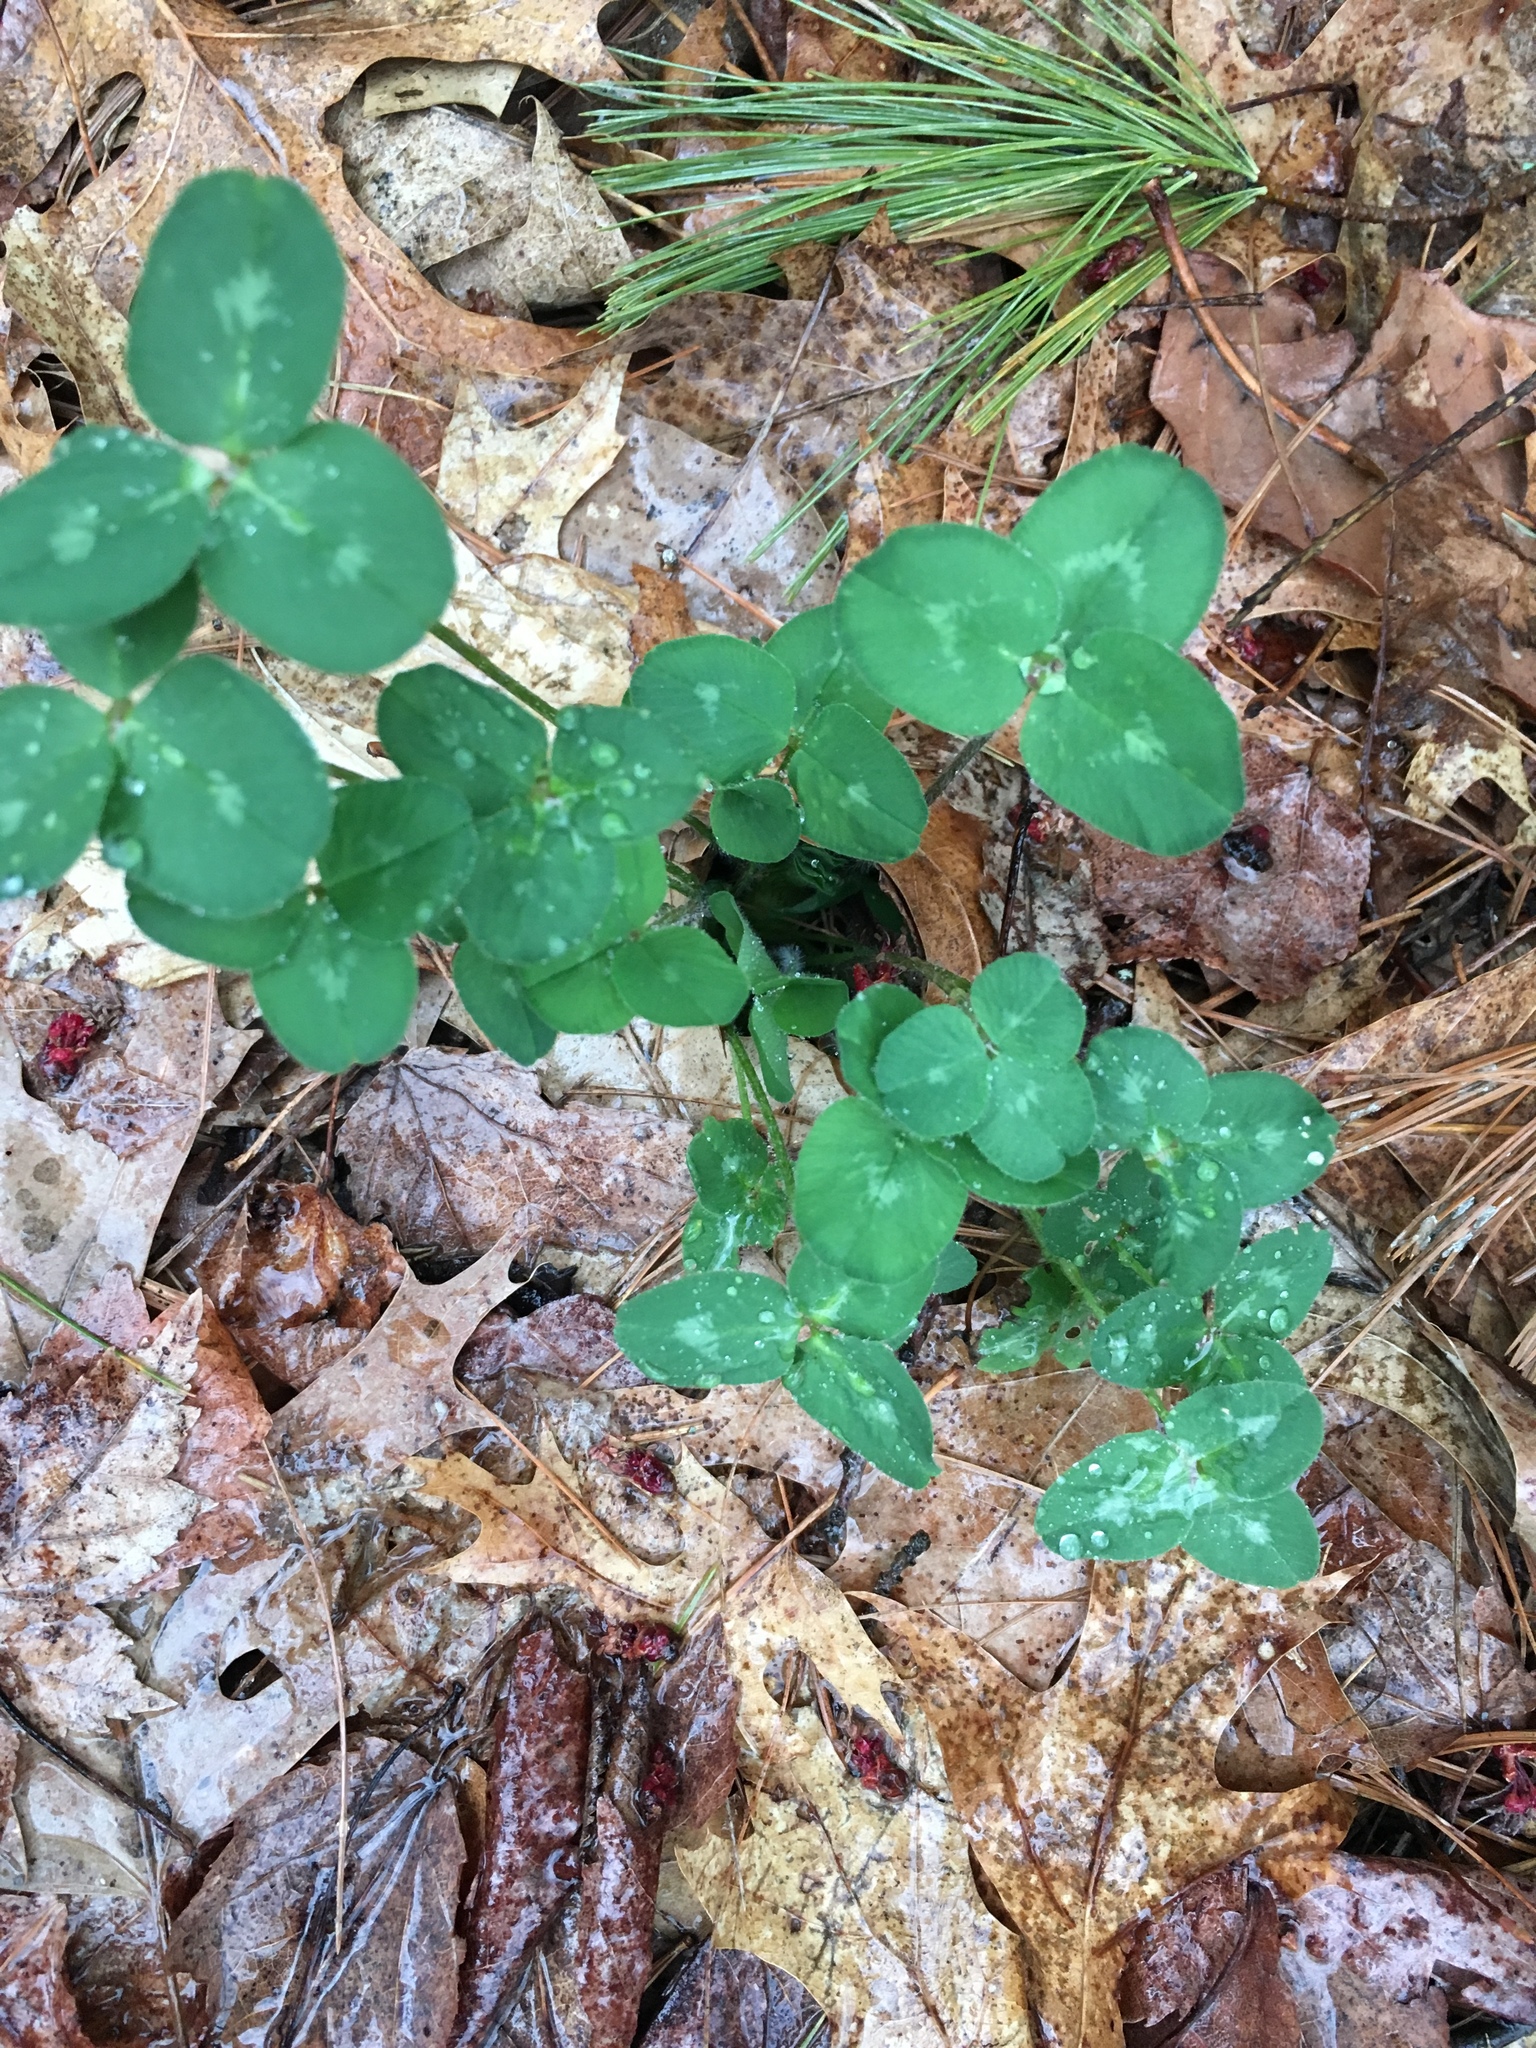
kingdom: Plantae
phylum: Tracheophyta
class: Magnoliopsida
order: Fabales
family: Fabaceae
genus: Trifolium
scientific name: Trifolium pratense
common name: Red clover
